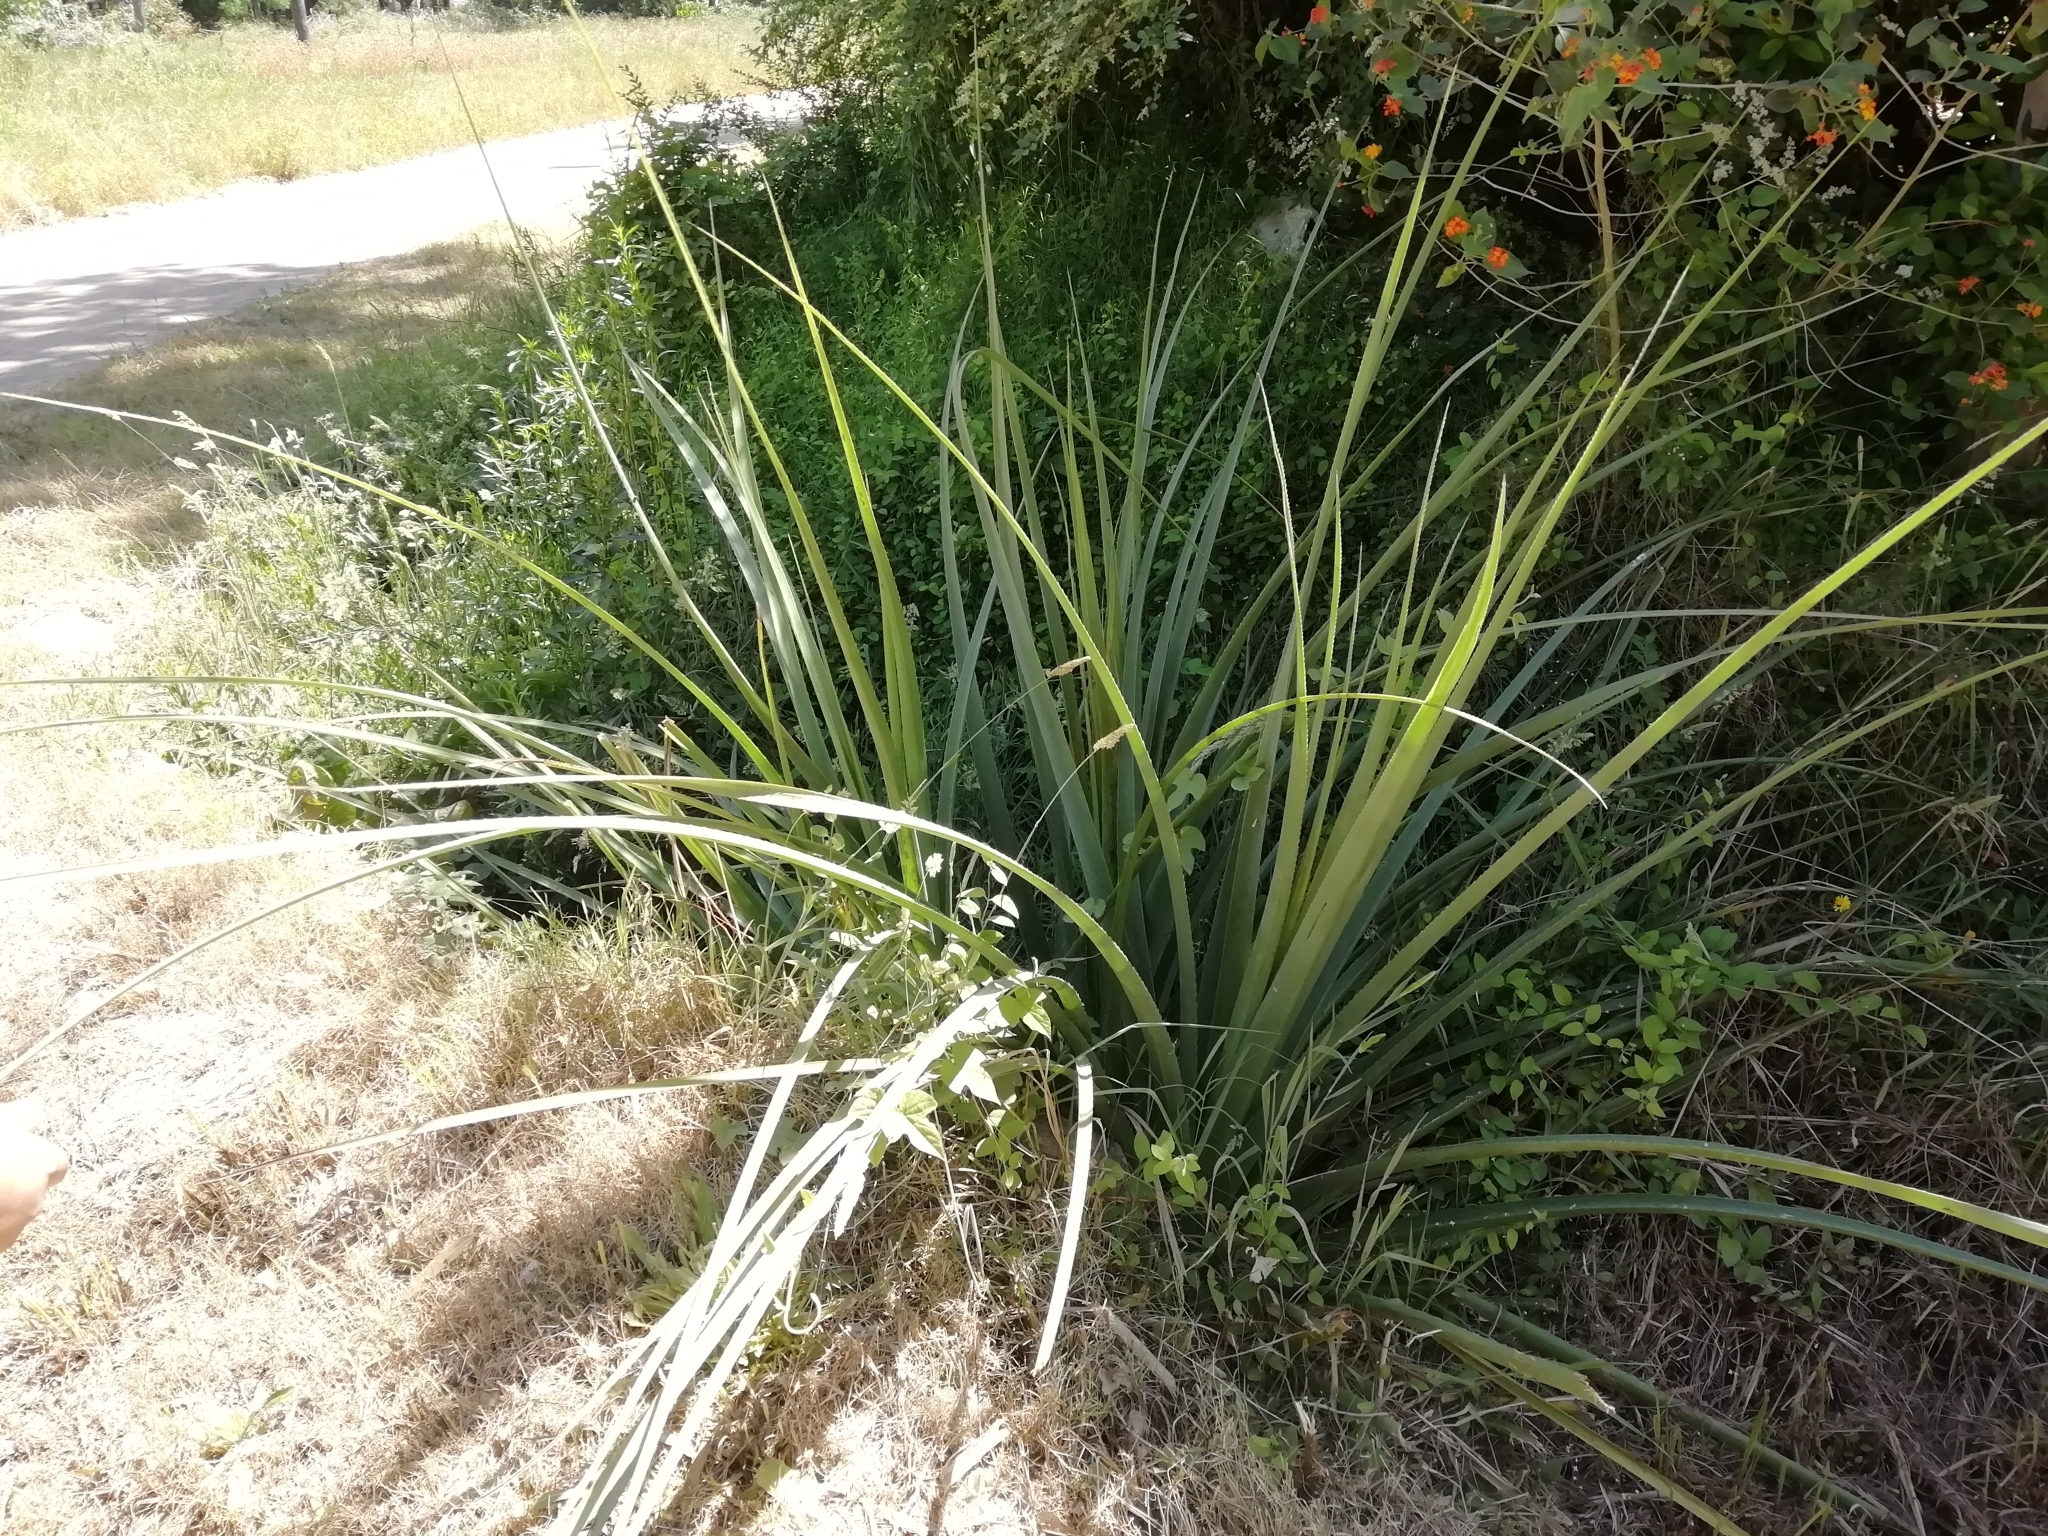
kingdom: Plantae
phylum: Tracheophyta
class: Magnoliopsida
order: Apiales
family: Apiaceae
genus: Eryngium
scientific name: Eryngium pandanifolium
